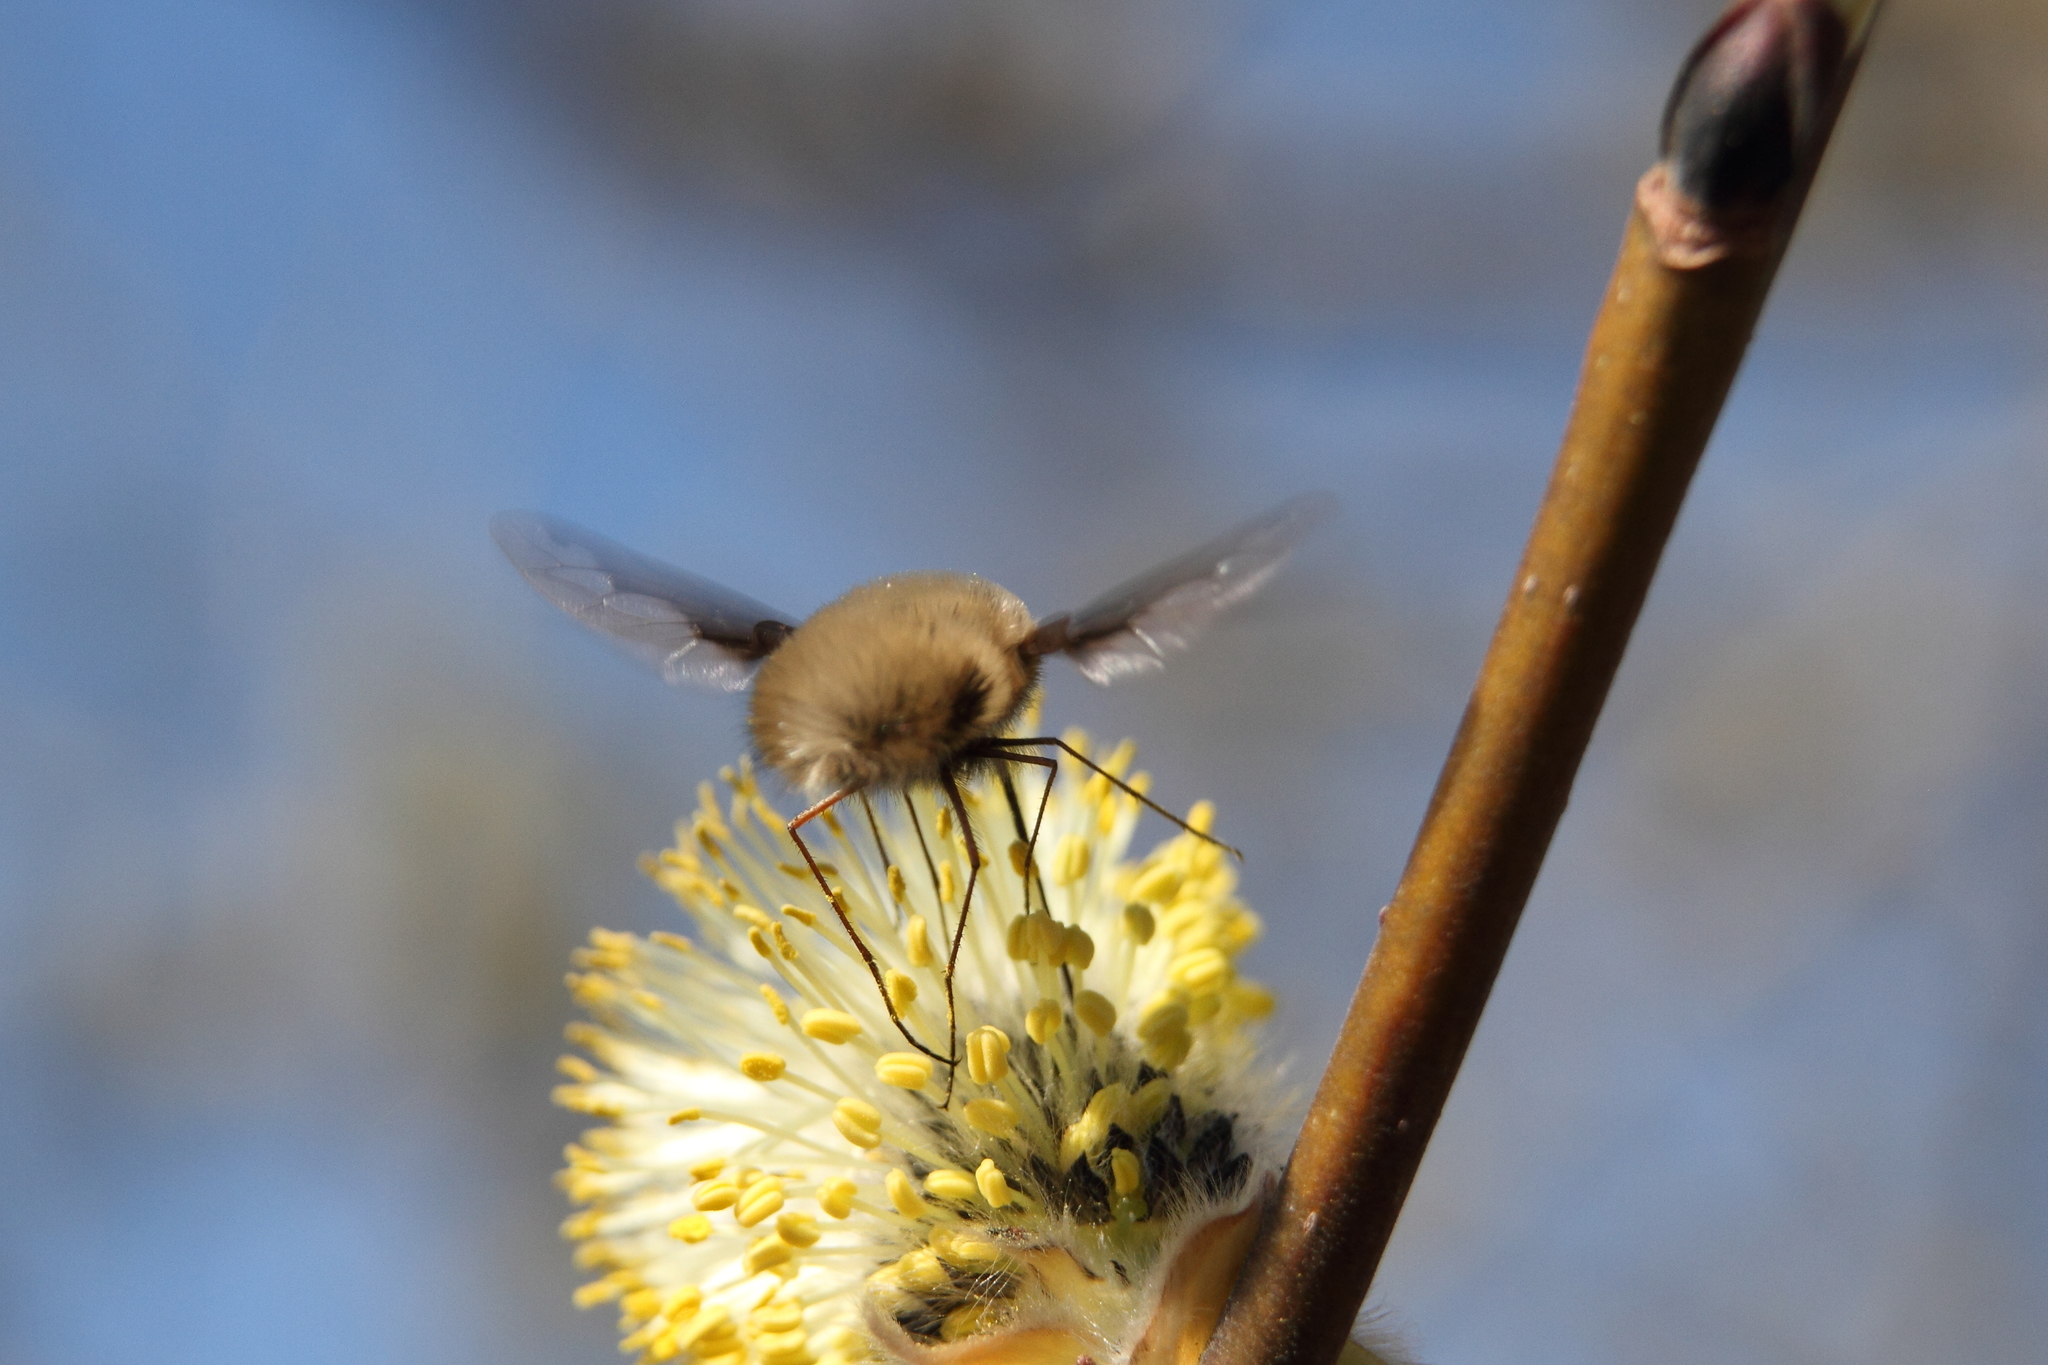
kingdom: Animalia
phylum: Arthropoda
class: Insecta
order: Diptera
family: Bombyliidae
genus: Bombylius
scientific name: Bombylius major
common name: Bee fly
